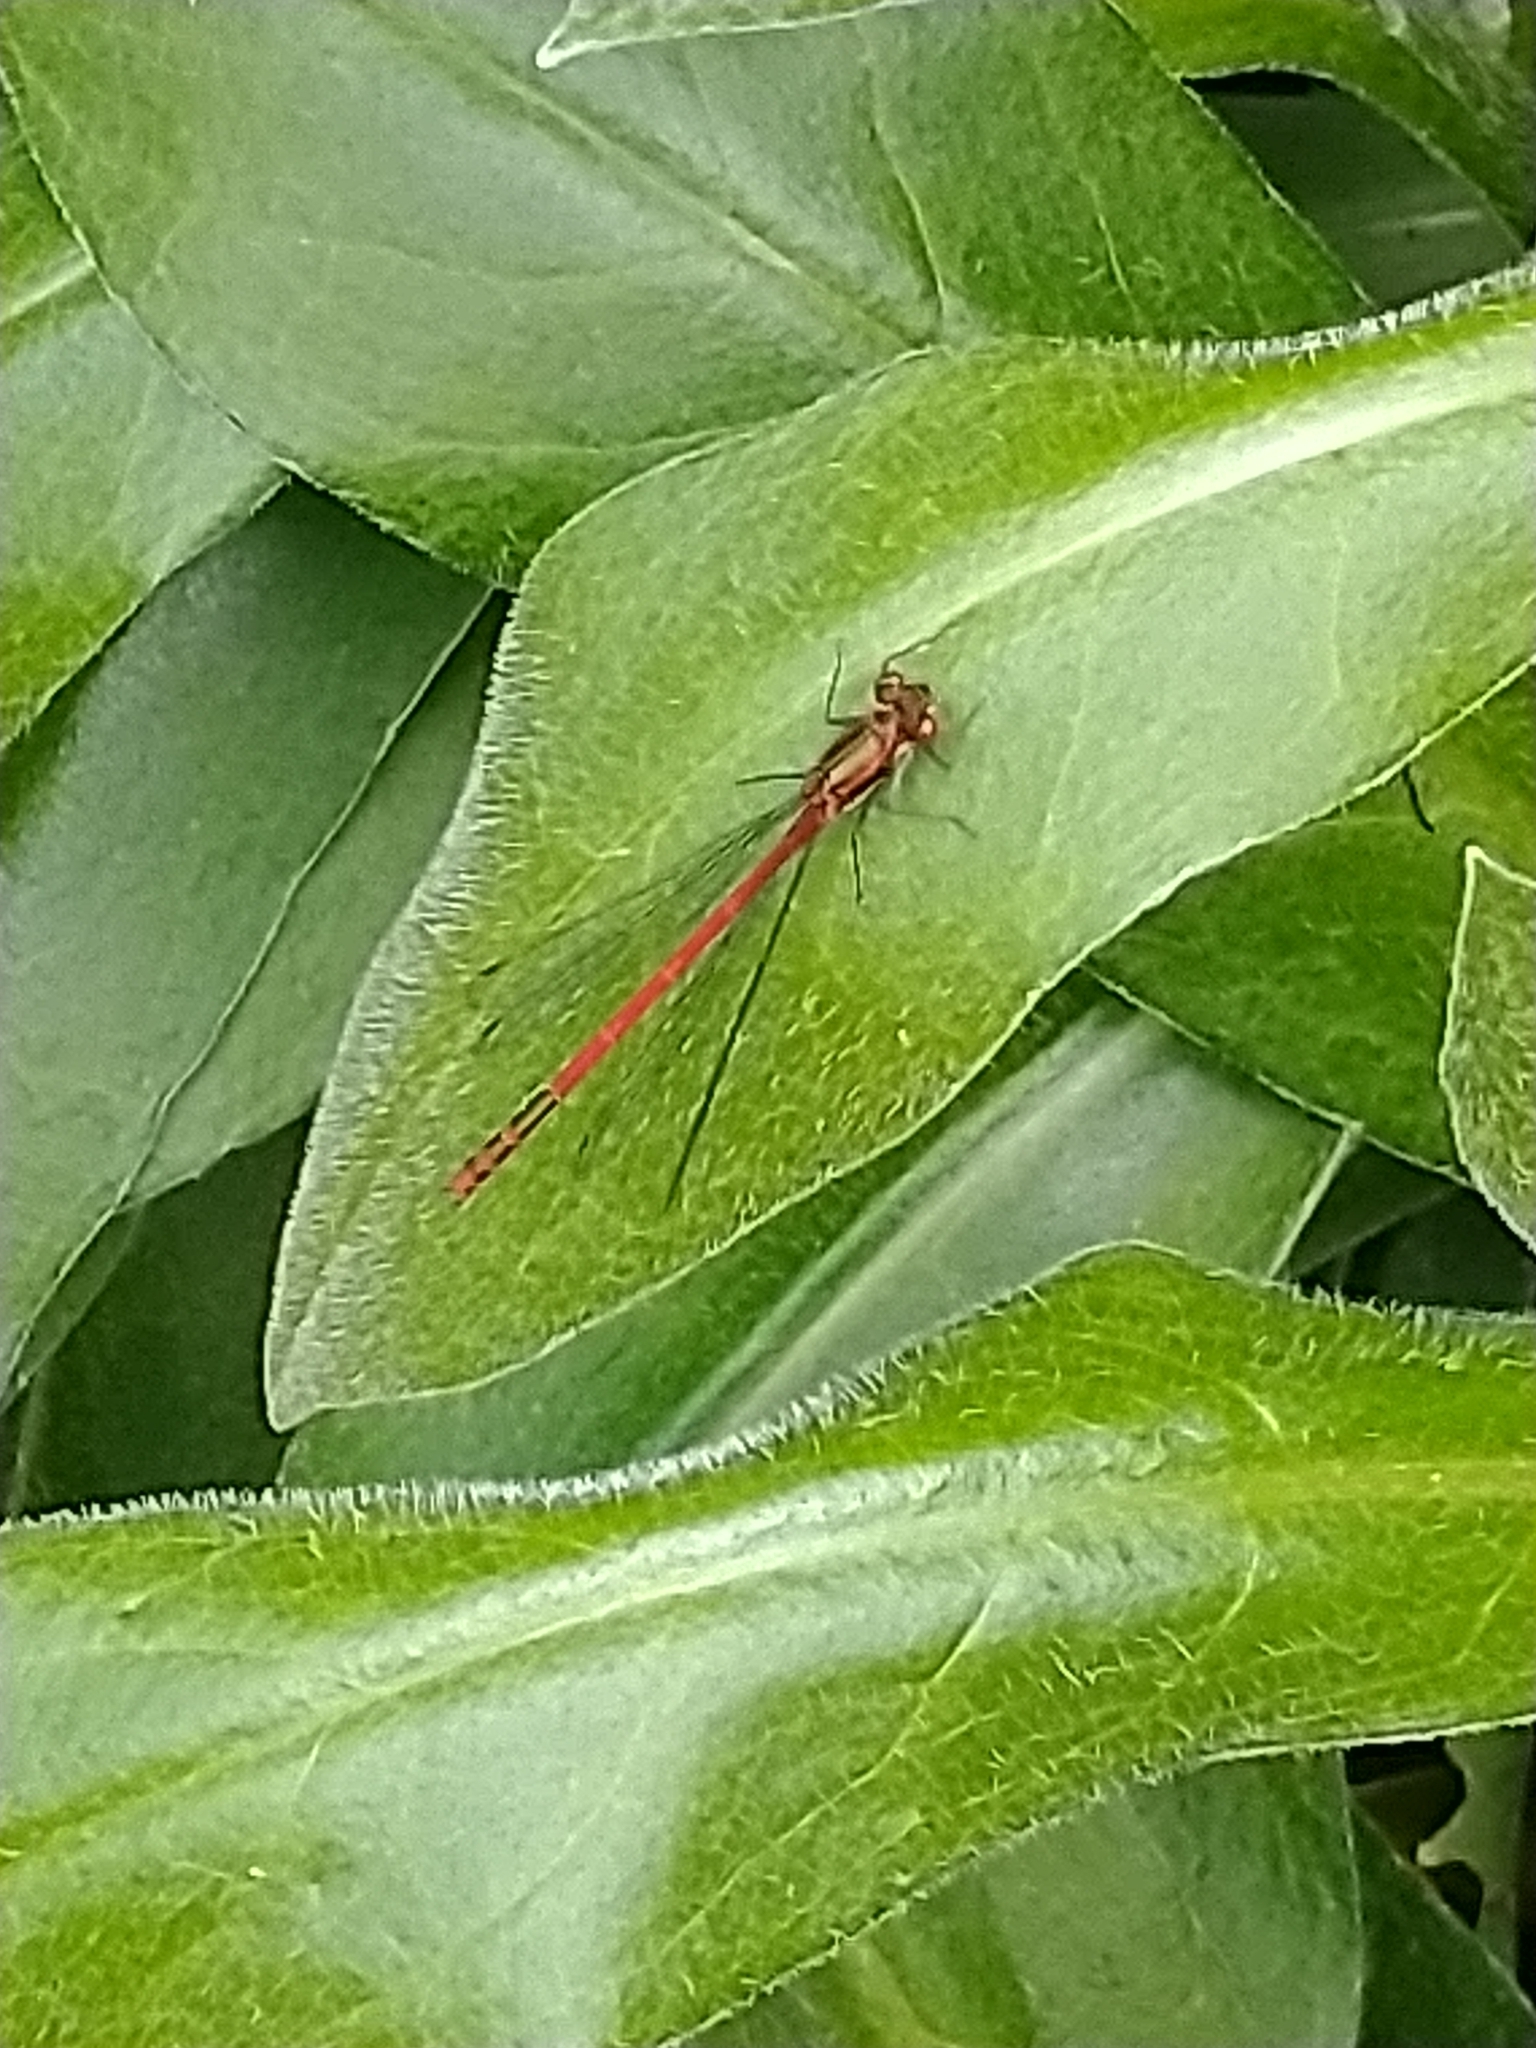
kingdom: Animalia
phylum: Arthropoda
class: Insecta
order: Odonata
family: Coenagrionidae
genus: Pyrrhosoma
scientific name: Pyrrhosoma nymphula
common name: Large red damsel
